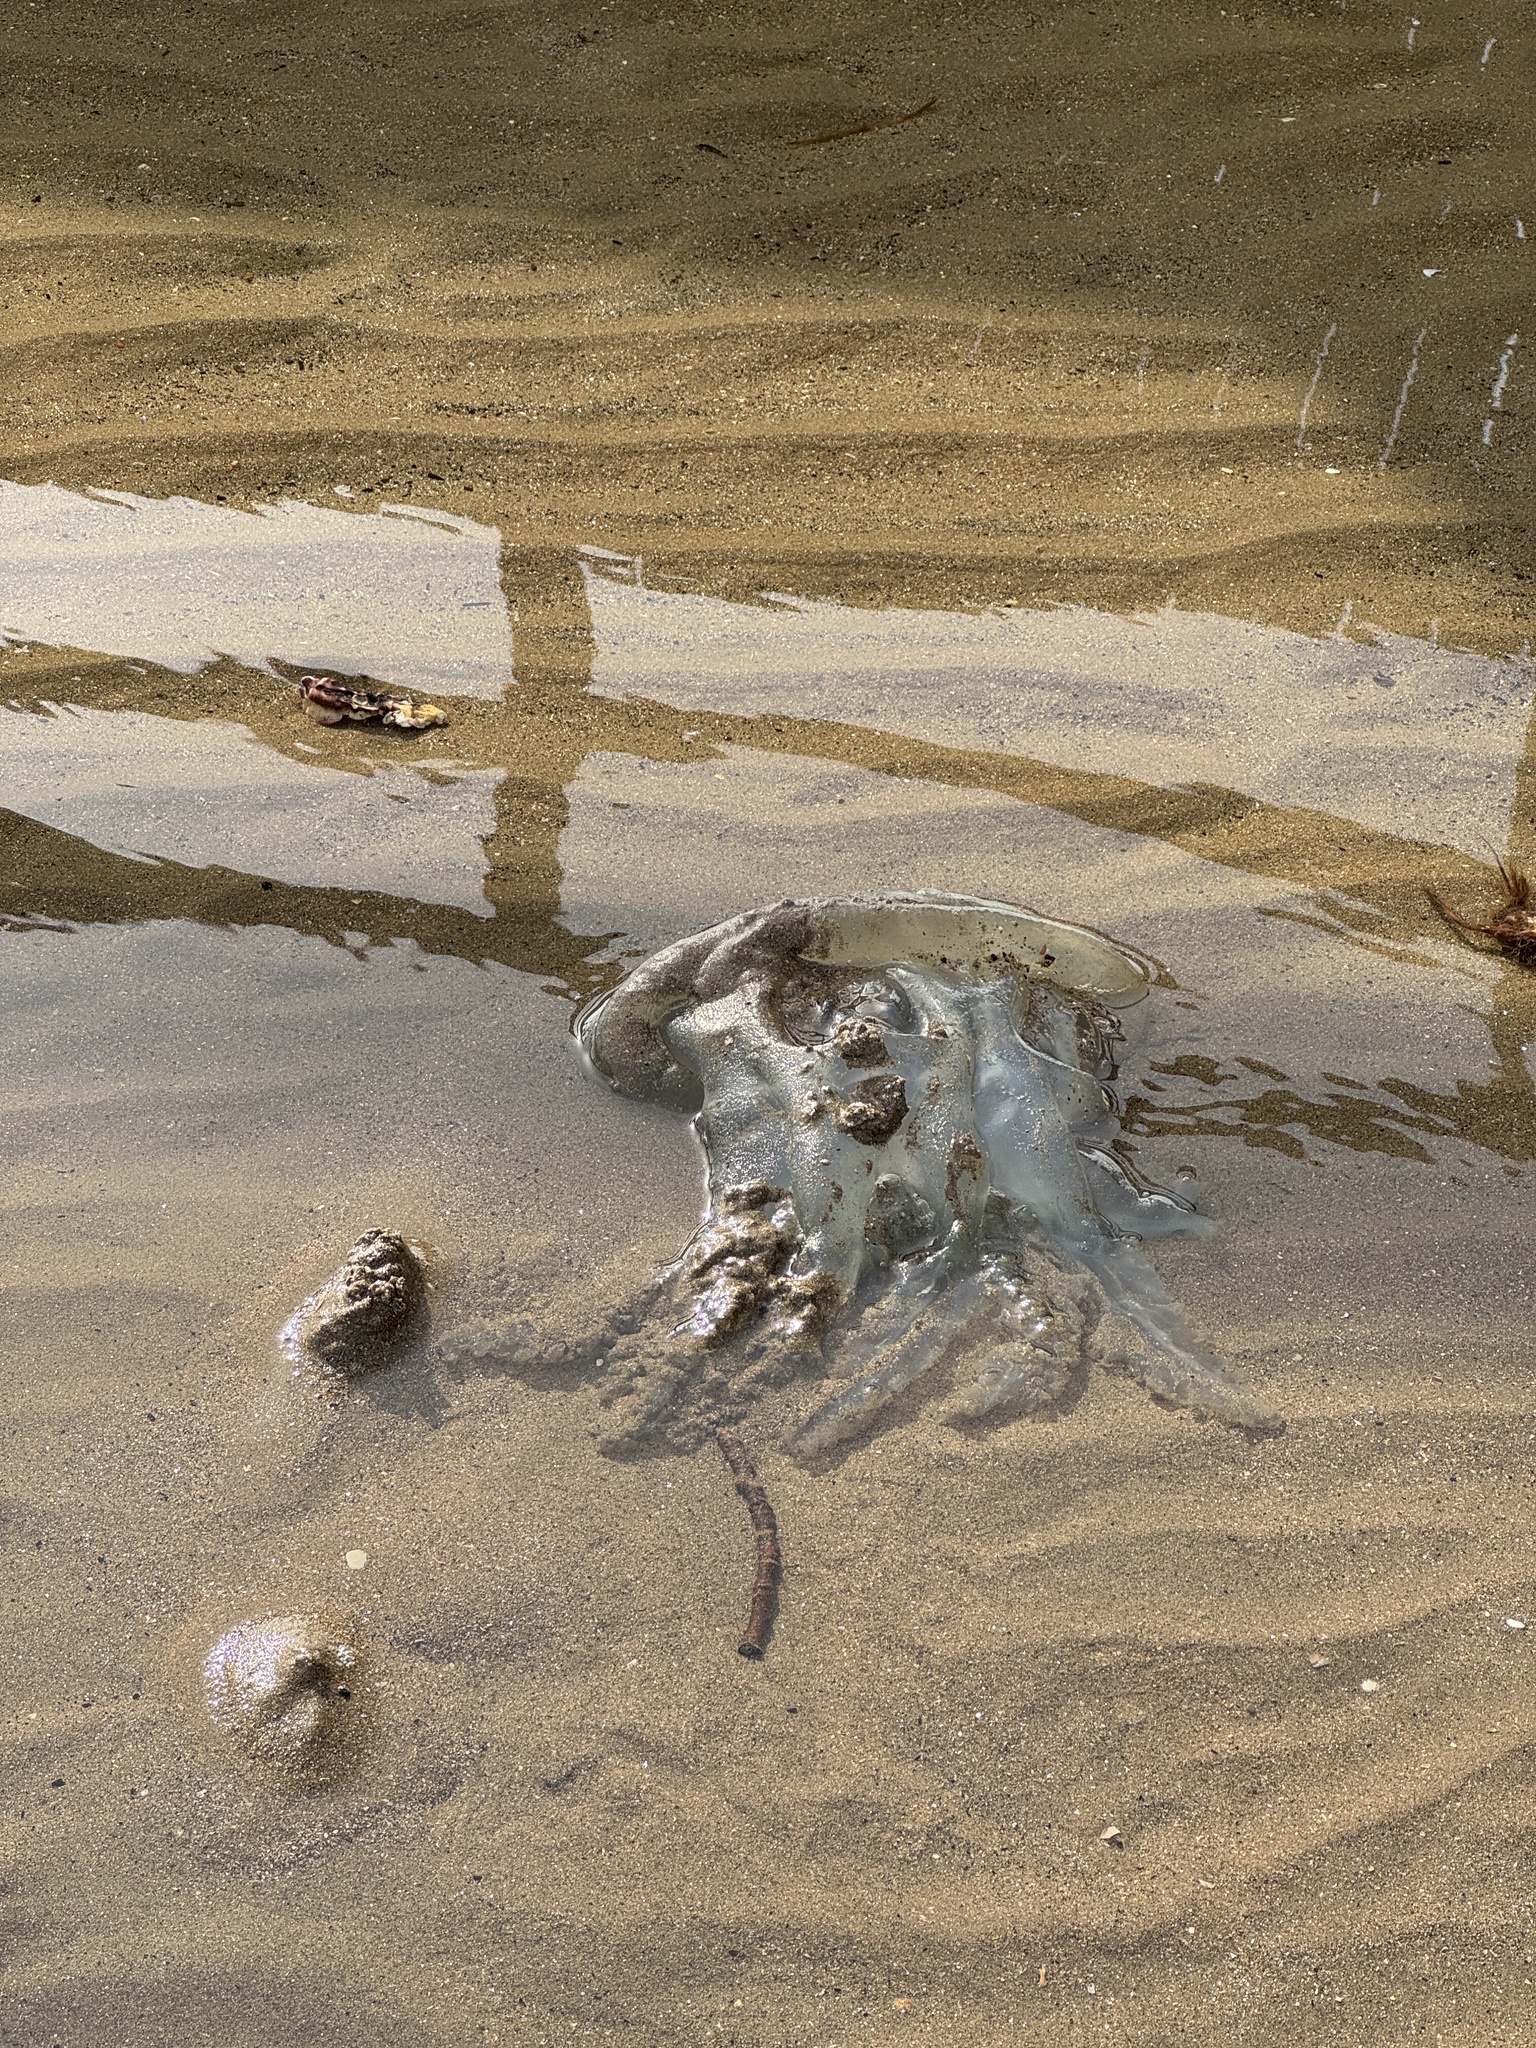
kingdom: Animalia
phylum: Cnidaria
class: Scyphozoa
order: Rhizostomeae
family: Catostylidae
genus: Catostylus
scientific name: Catostylus tagi
